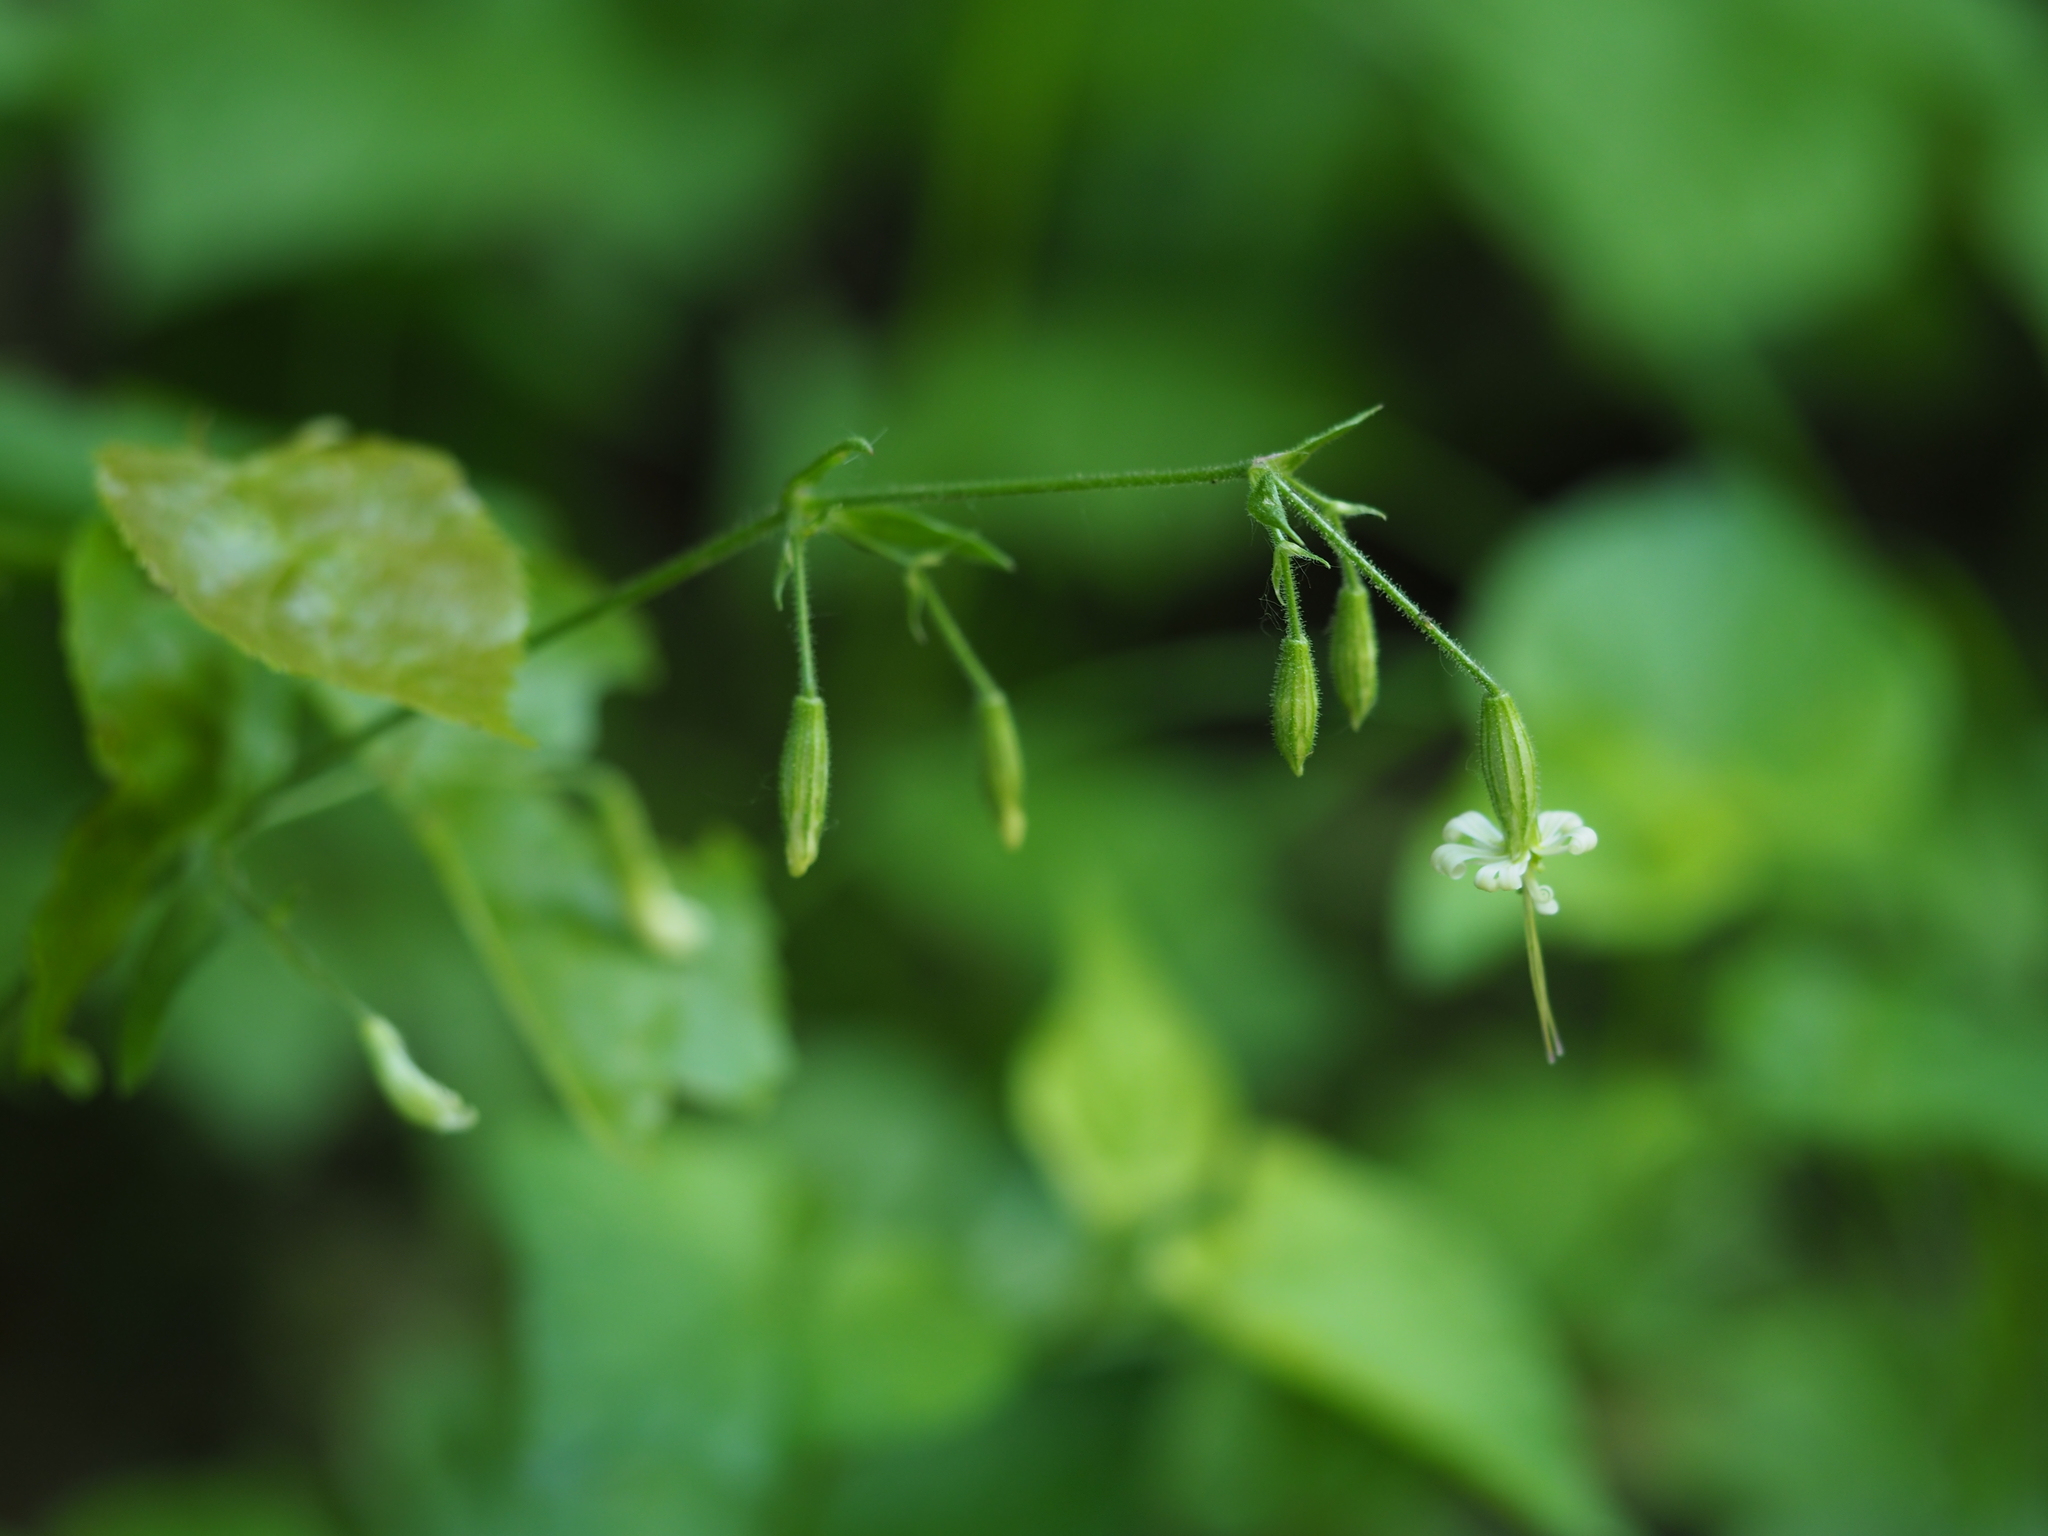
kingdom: Plantae
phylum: Tracheophyta
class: Magnoliopsida
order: Caryophyllales
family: Caryophyllaceae
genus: Silene
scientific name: Silene nutans
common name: Nottingham catchfly
